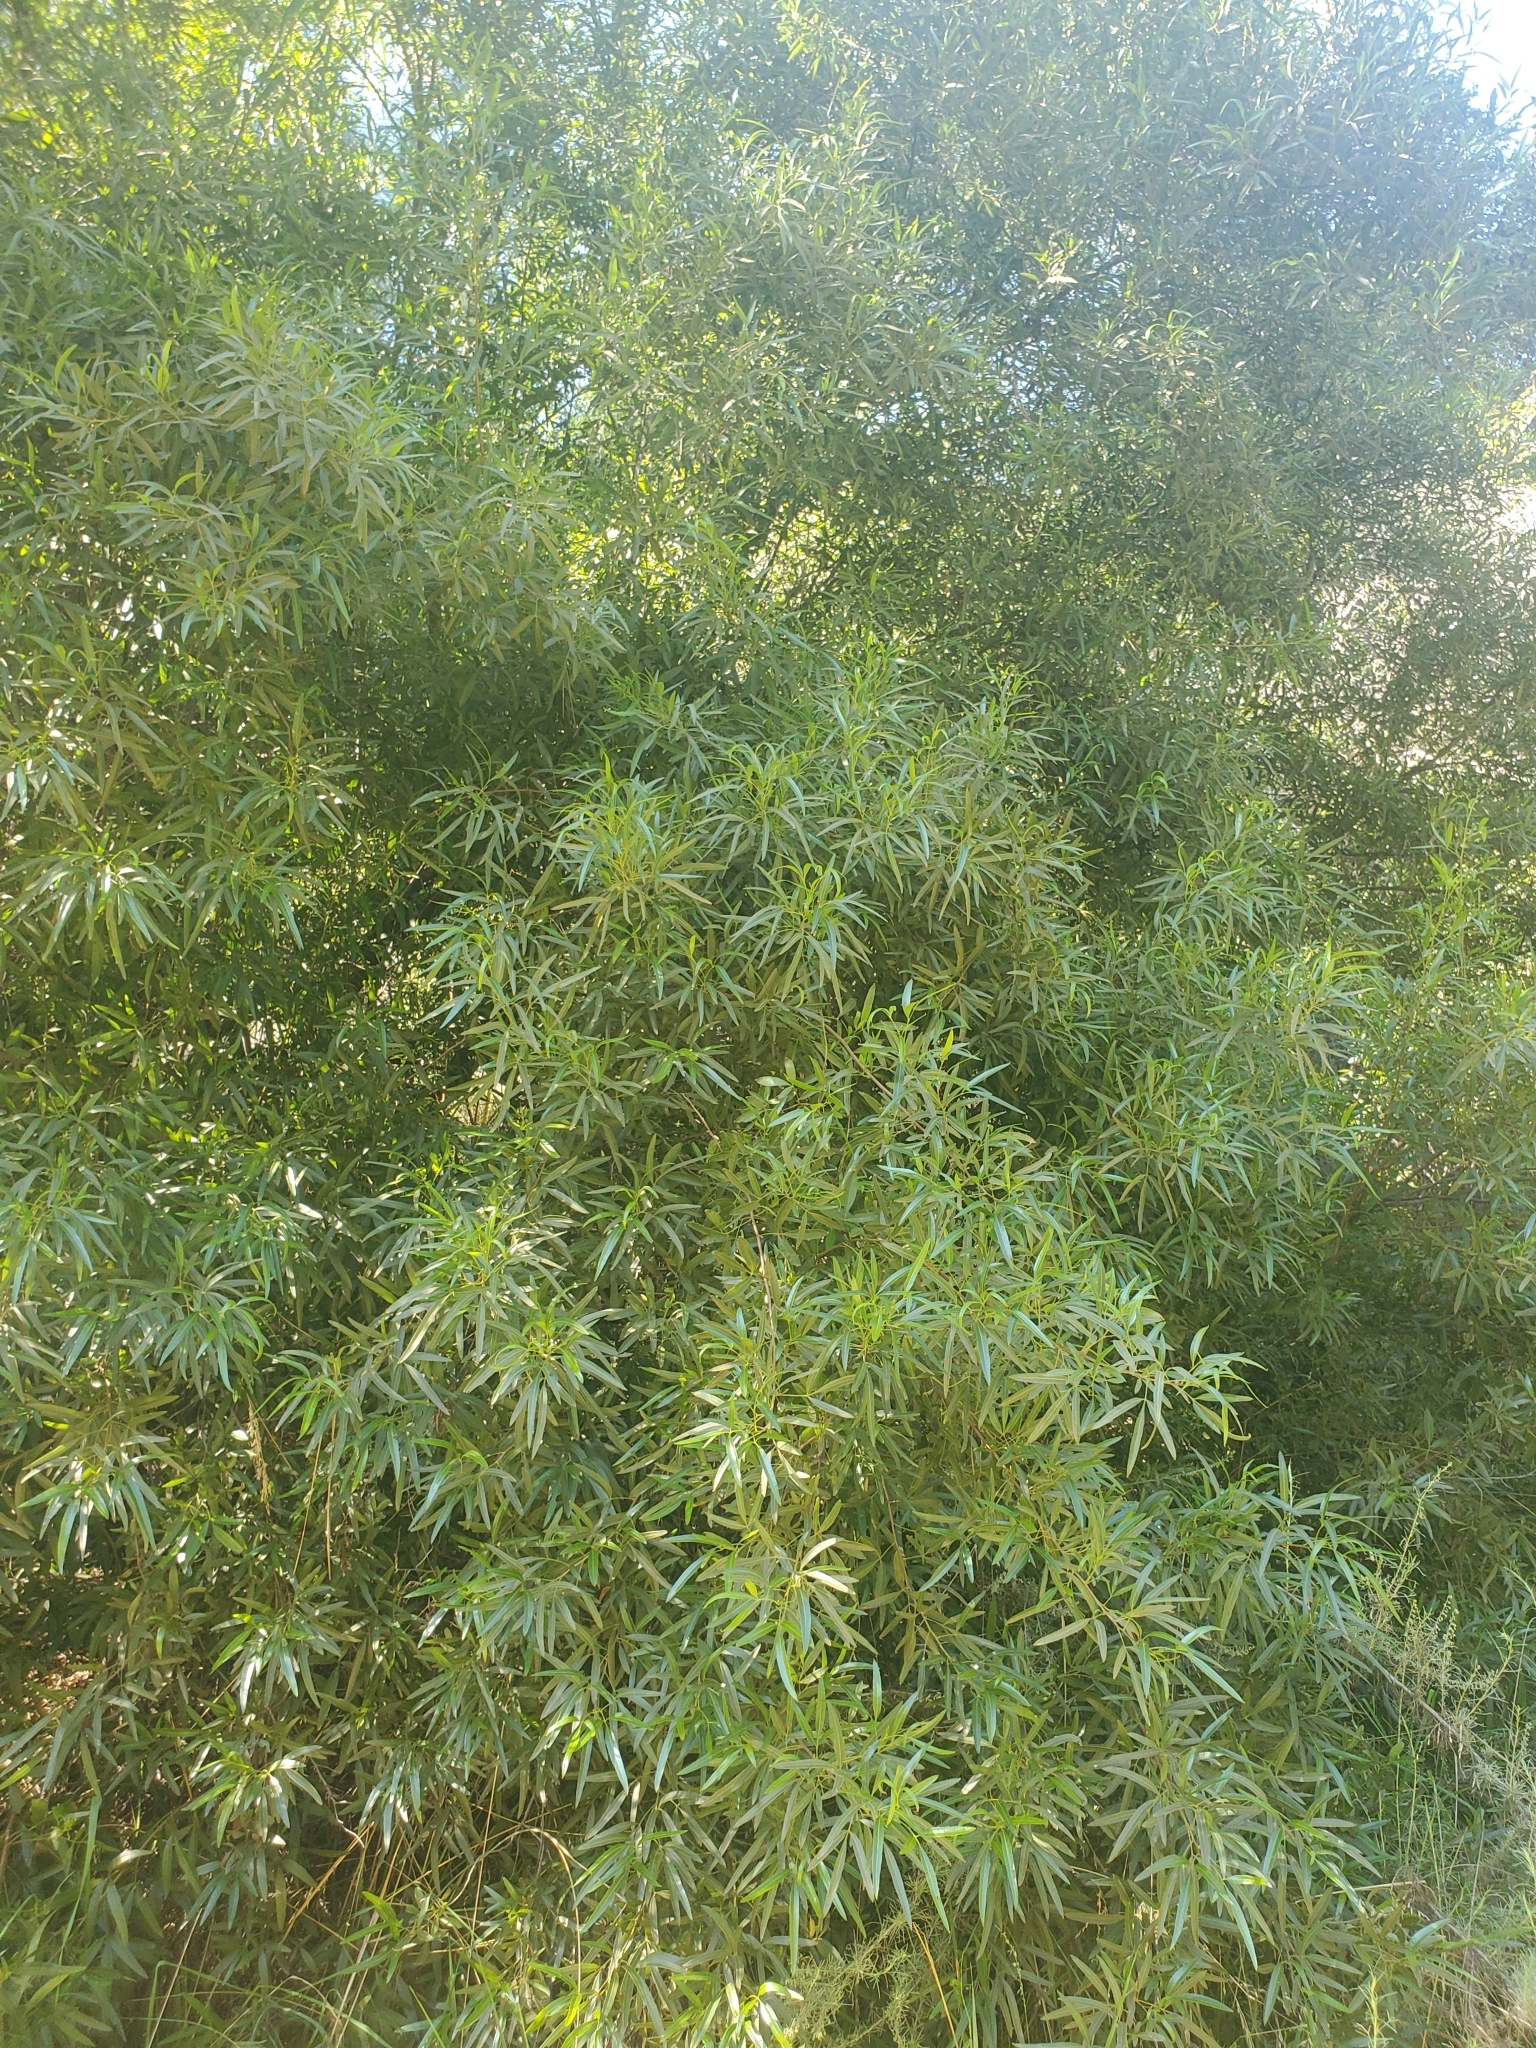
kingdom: Plantae
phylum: Tracheophyta
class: Magnoliopsida
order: Sapindales
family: Anacardiaceae
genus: Searsia
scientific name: Searsia lancea
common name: Cashew
